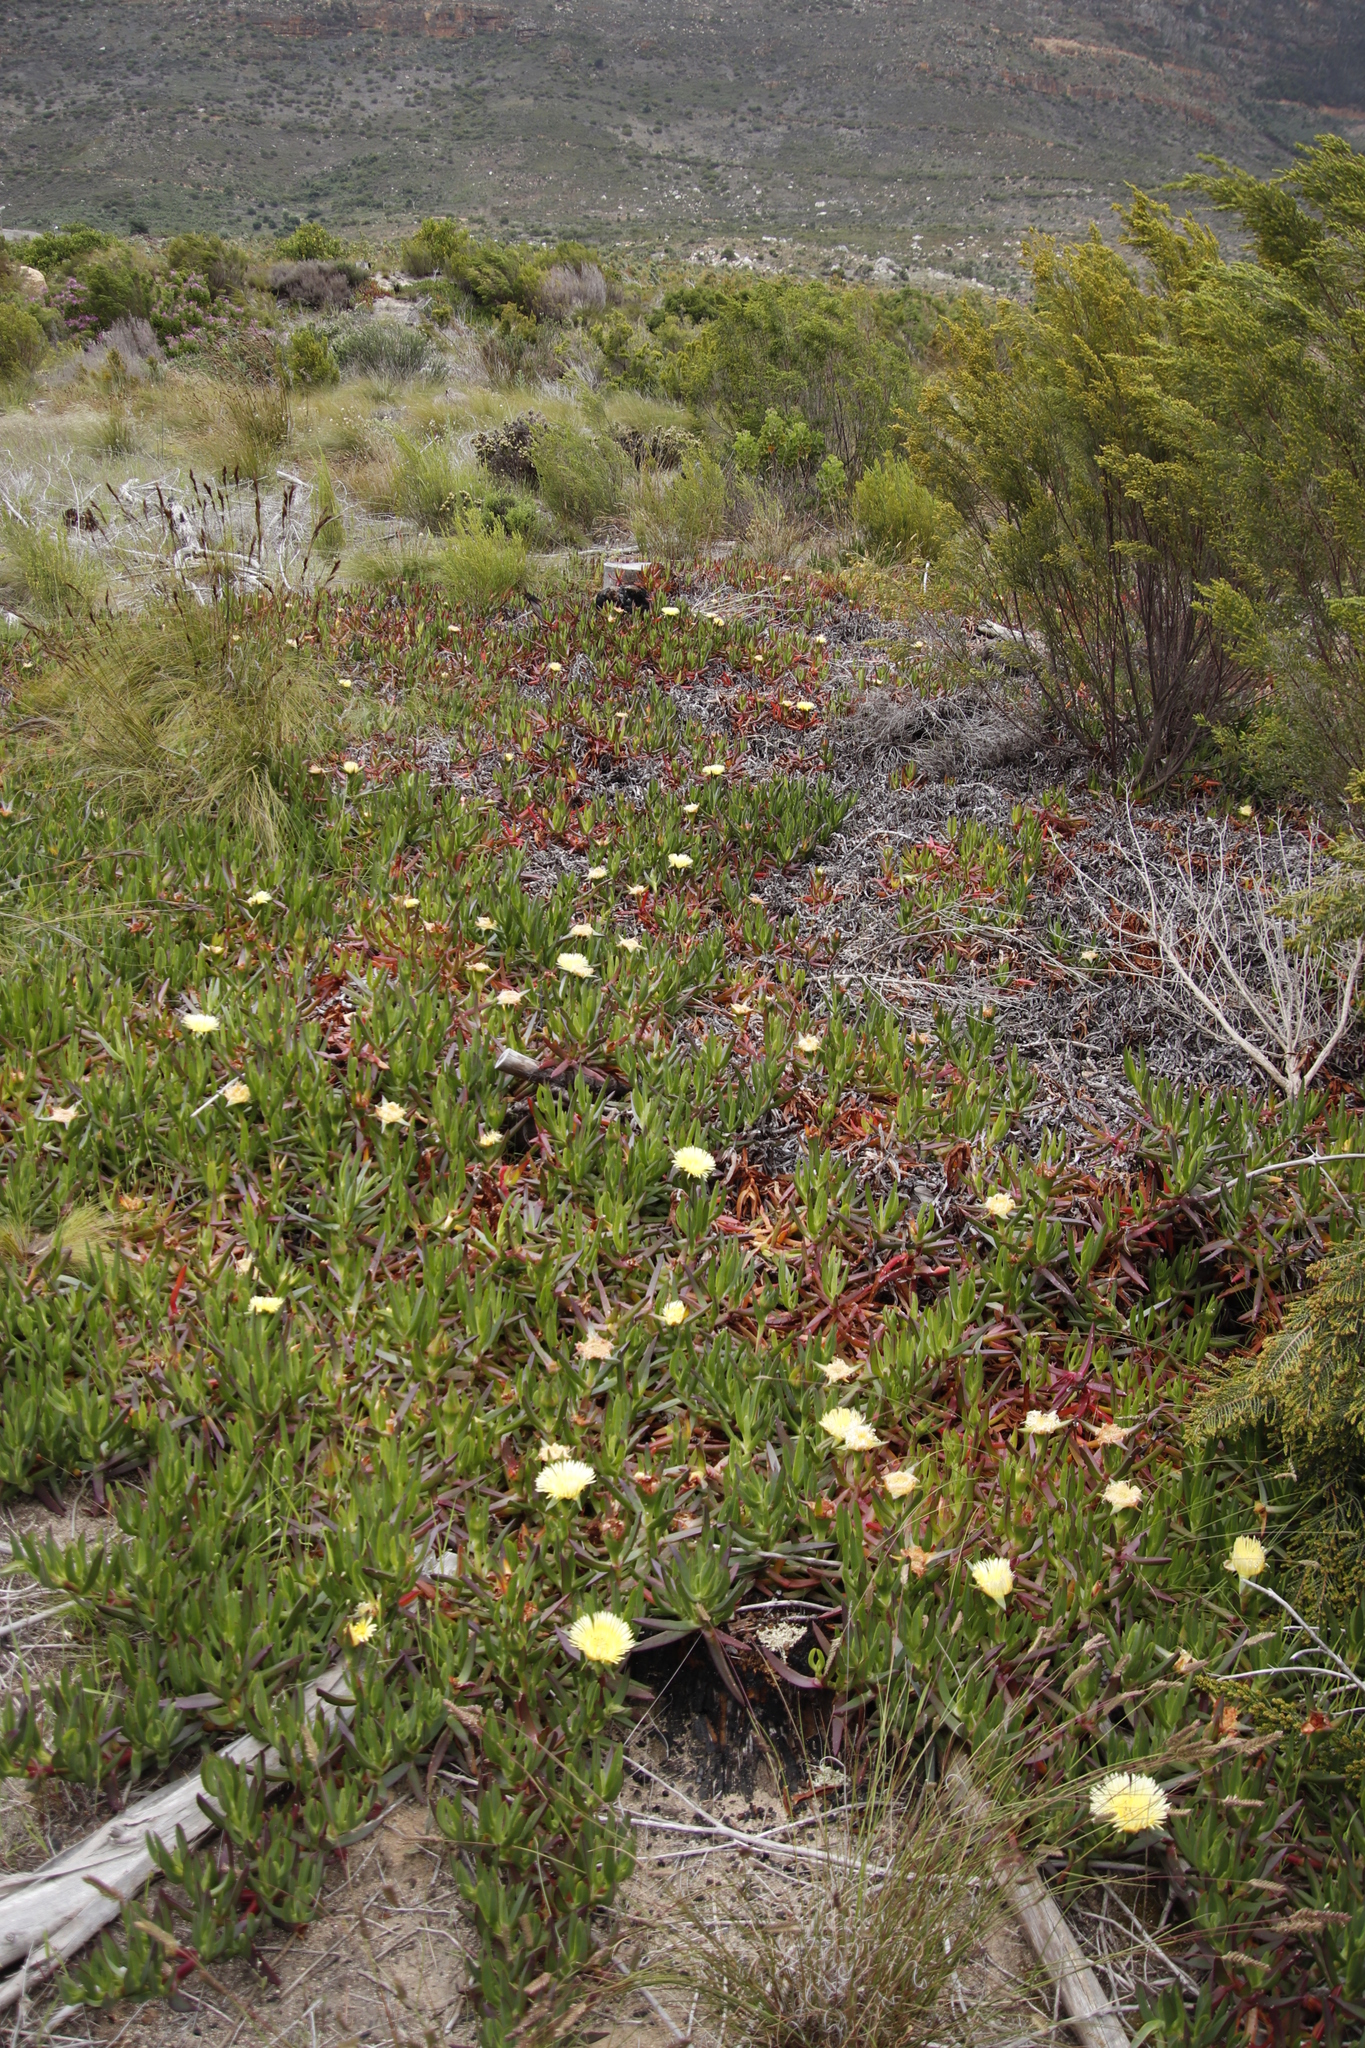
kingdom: Plantae
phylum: Tracheophyta
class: Magnoliopsida
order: Caryophyllales
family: Aizoaceae
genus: Carpobrotus
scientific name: Carpobrotus edulis
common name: Hottentot-fig
